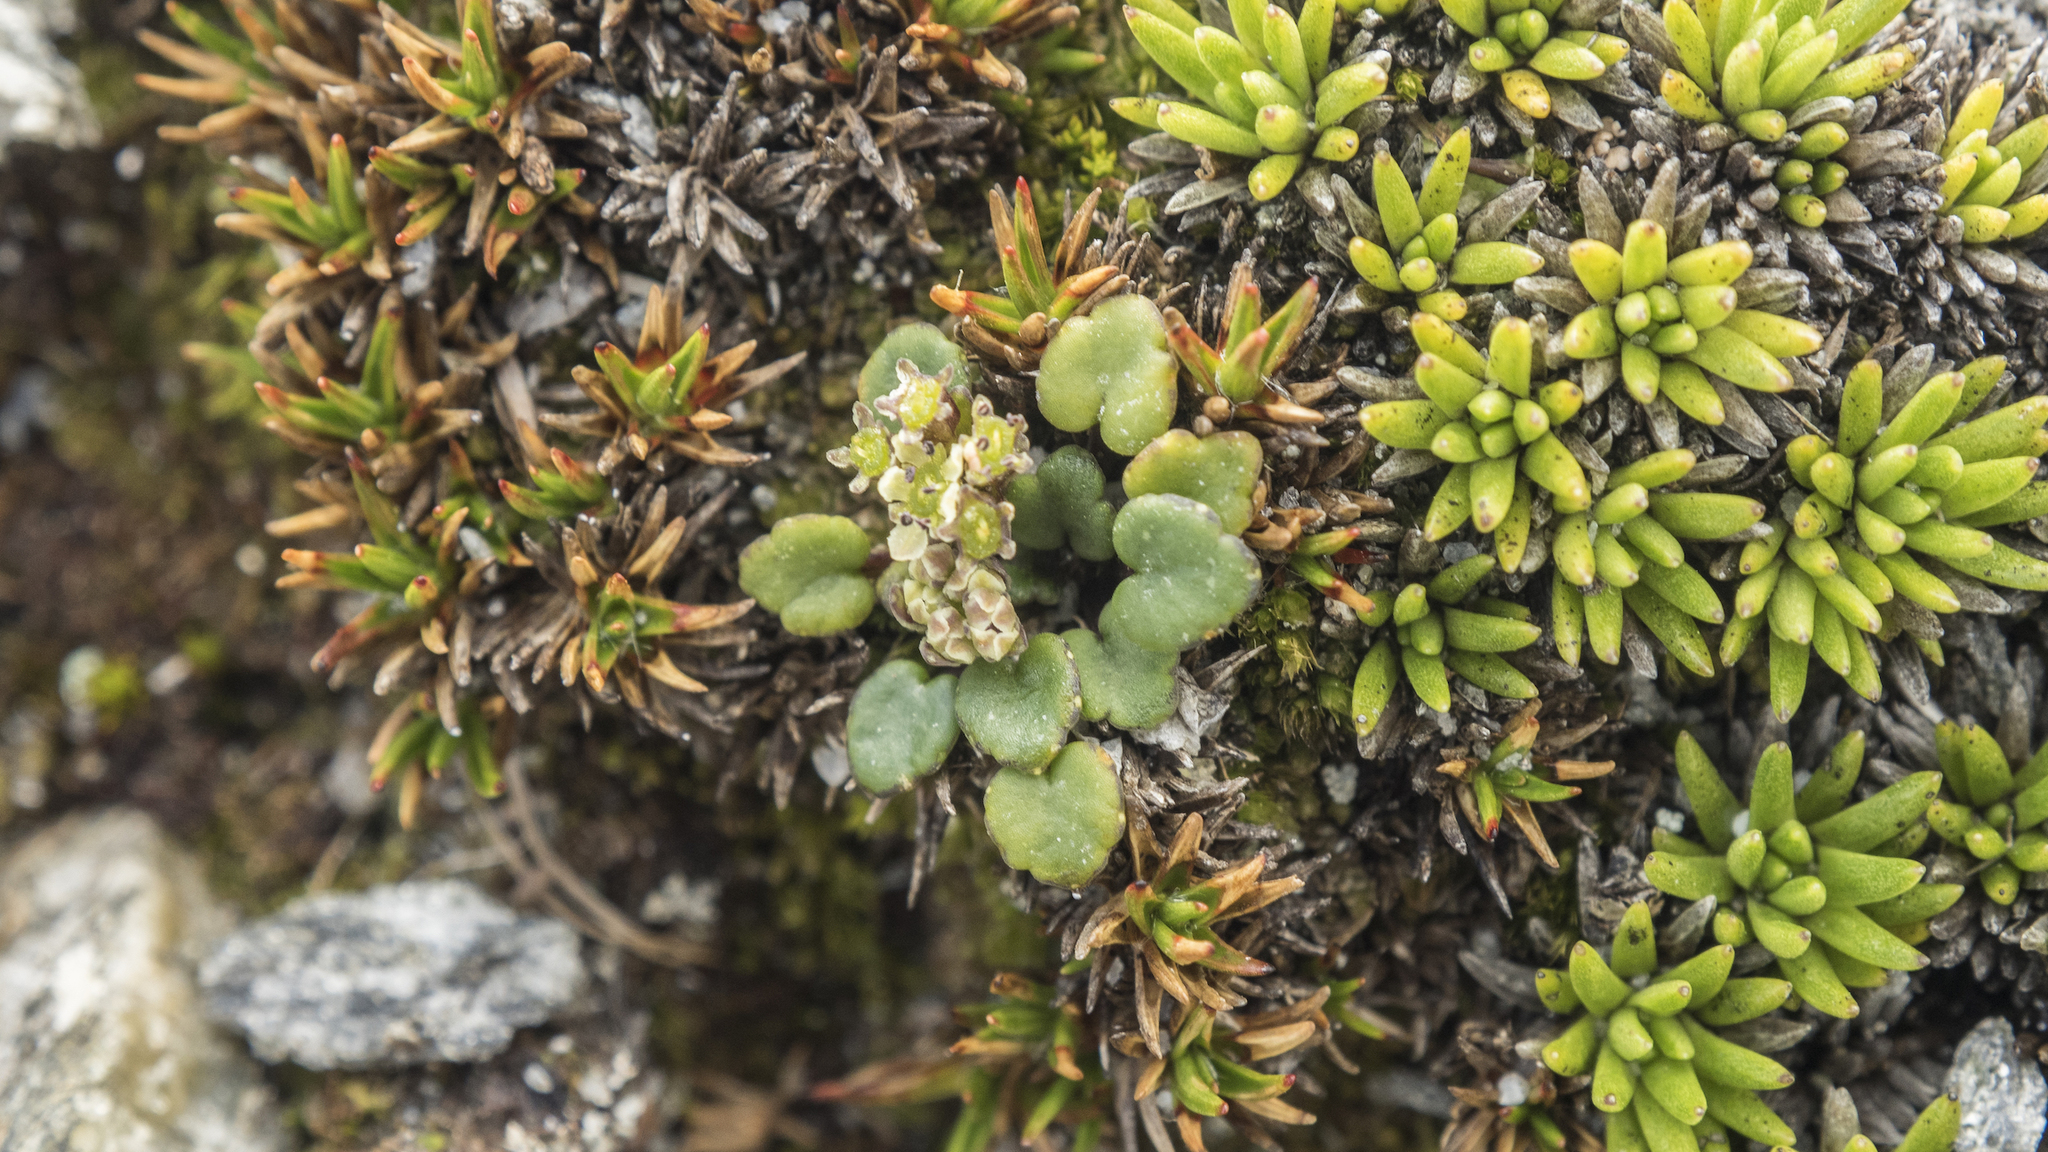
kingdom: Plantae
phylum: Tracheophyta
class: Magnoliopsida
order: Apiales
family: Apiaceae
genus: Azorella
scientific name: Azorella exigua
